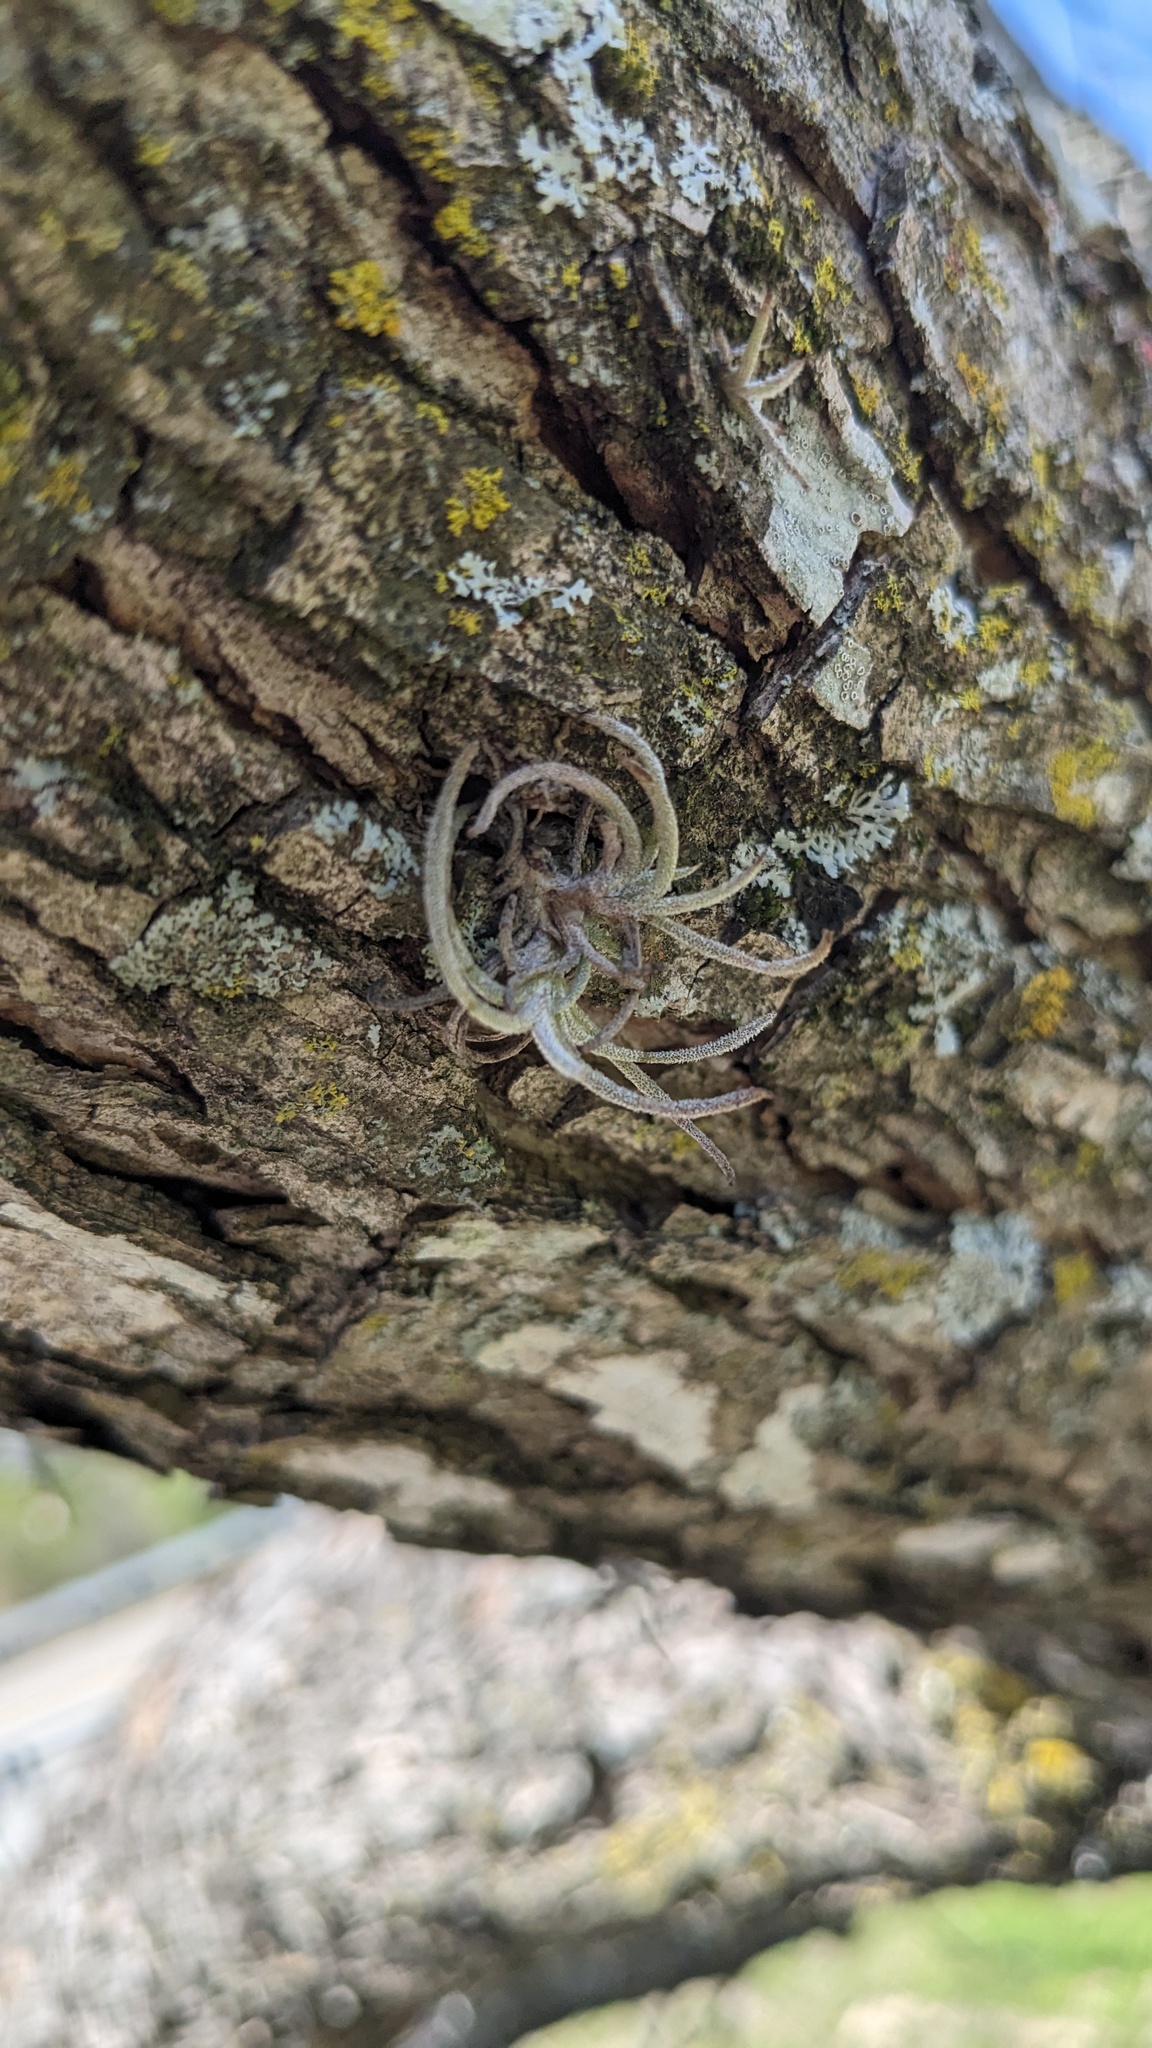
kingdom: Plantae
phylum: Tracheophyta
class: Liliopsida
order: Poales
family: Bromeliaceae
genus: Tillandsia
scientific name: Tillandsia recurvata
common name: Small ballmoss
